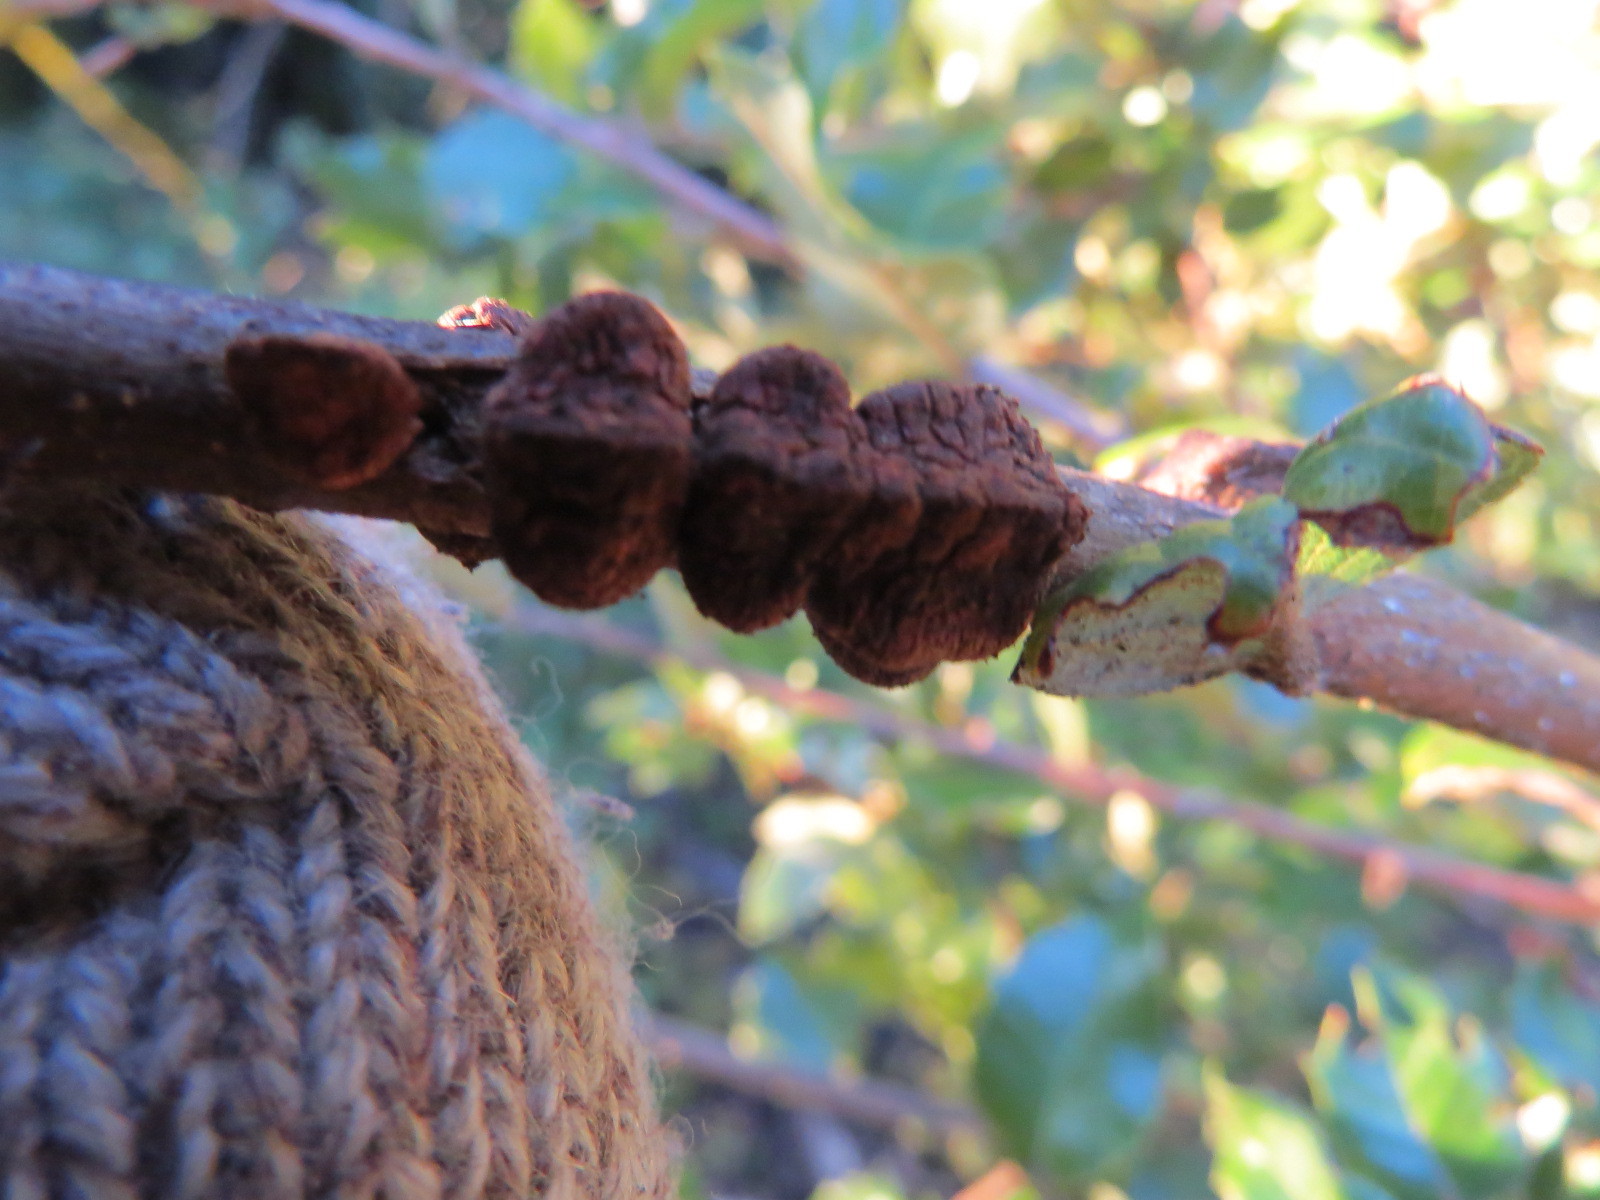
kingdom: Animalia
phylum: Arthropoda
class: Insecta
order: Hymenoptera
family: Cynipidae
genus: Disholandricus
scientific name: Disholandricus
